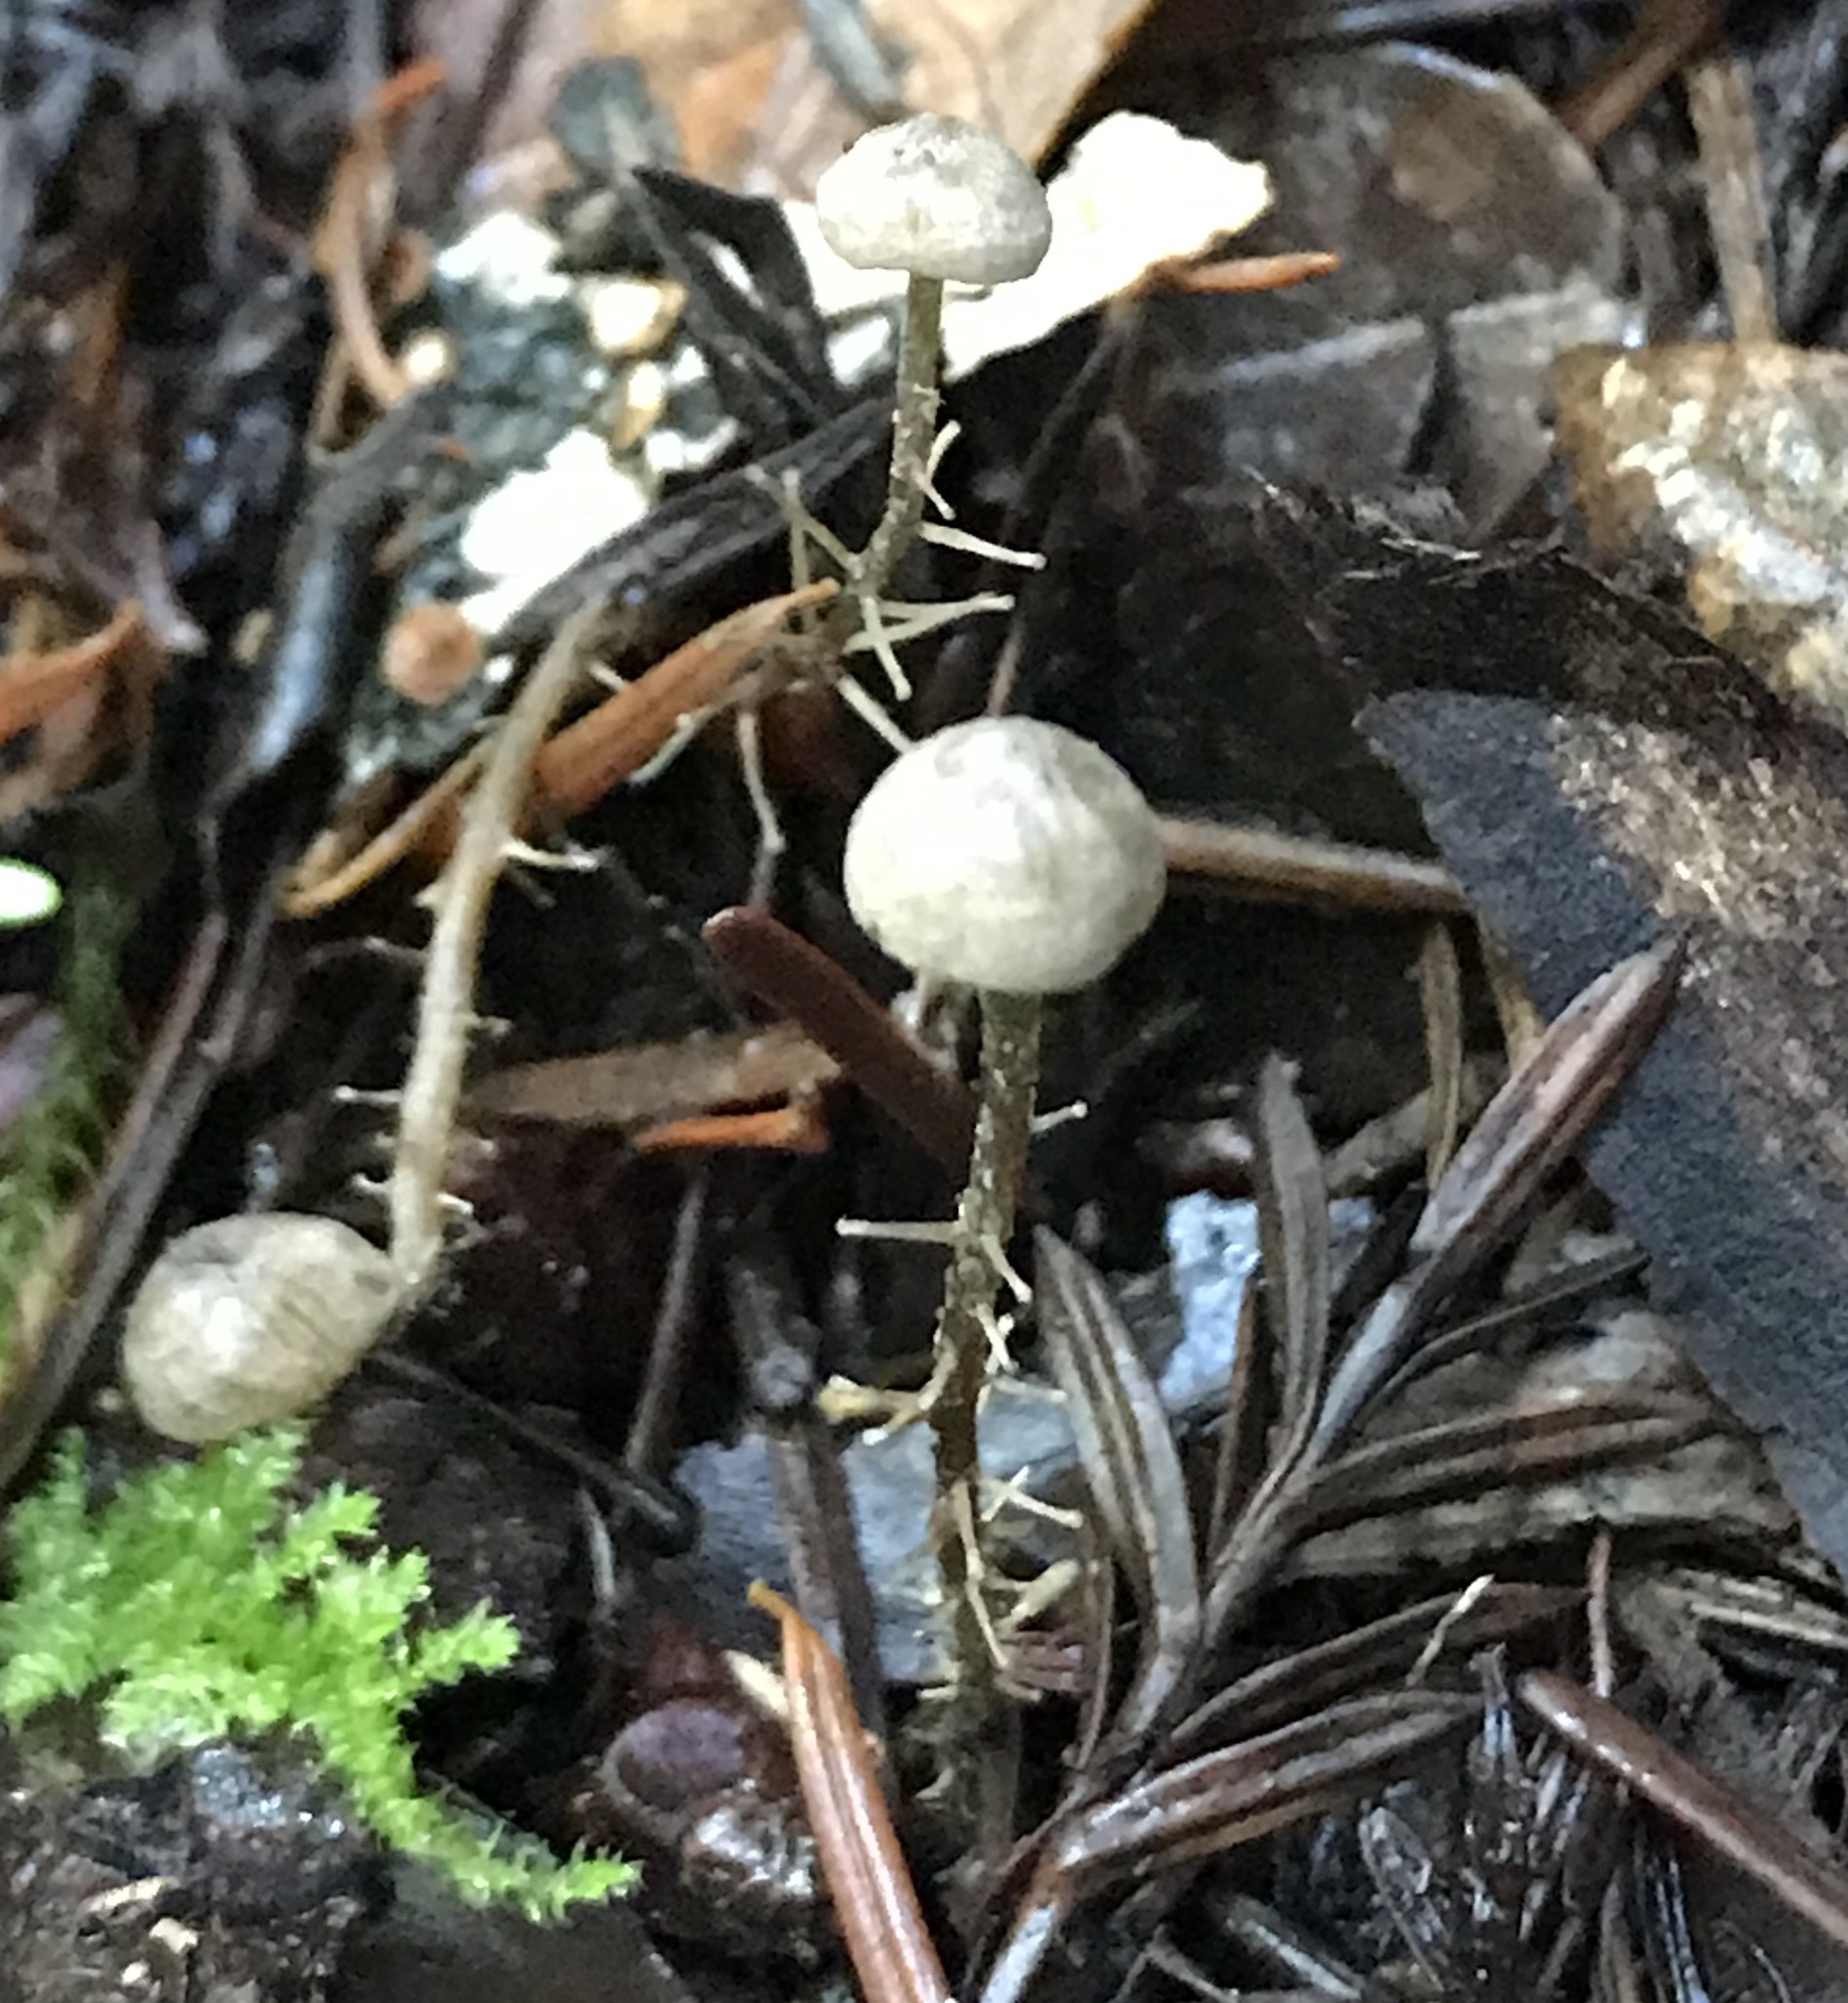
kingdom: Fungi
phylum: Basidiomycota
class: Agaricomycetes
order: Agaricales
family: Tricholomataceae
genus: Dendrocollybia
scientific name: Dendrocollybia racemosa
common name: Branched shanklet
